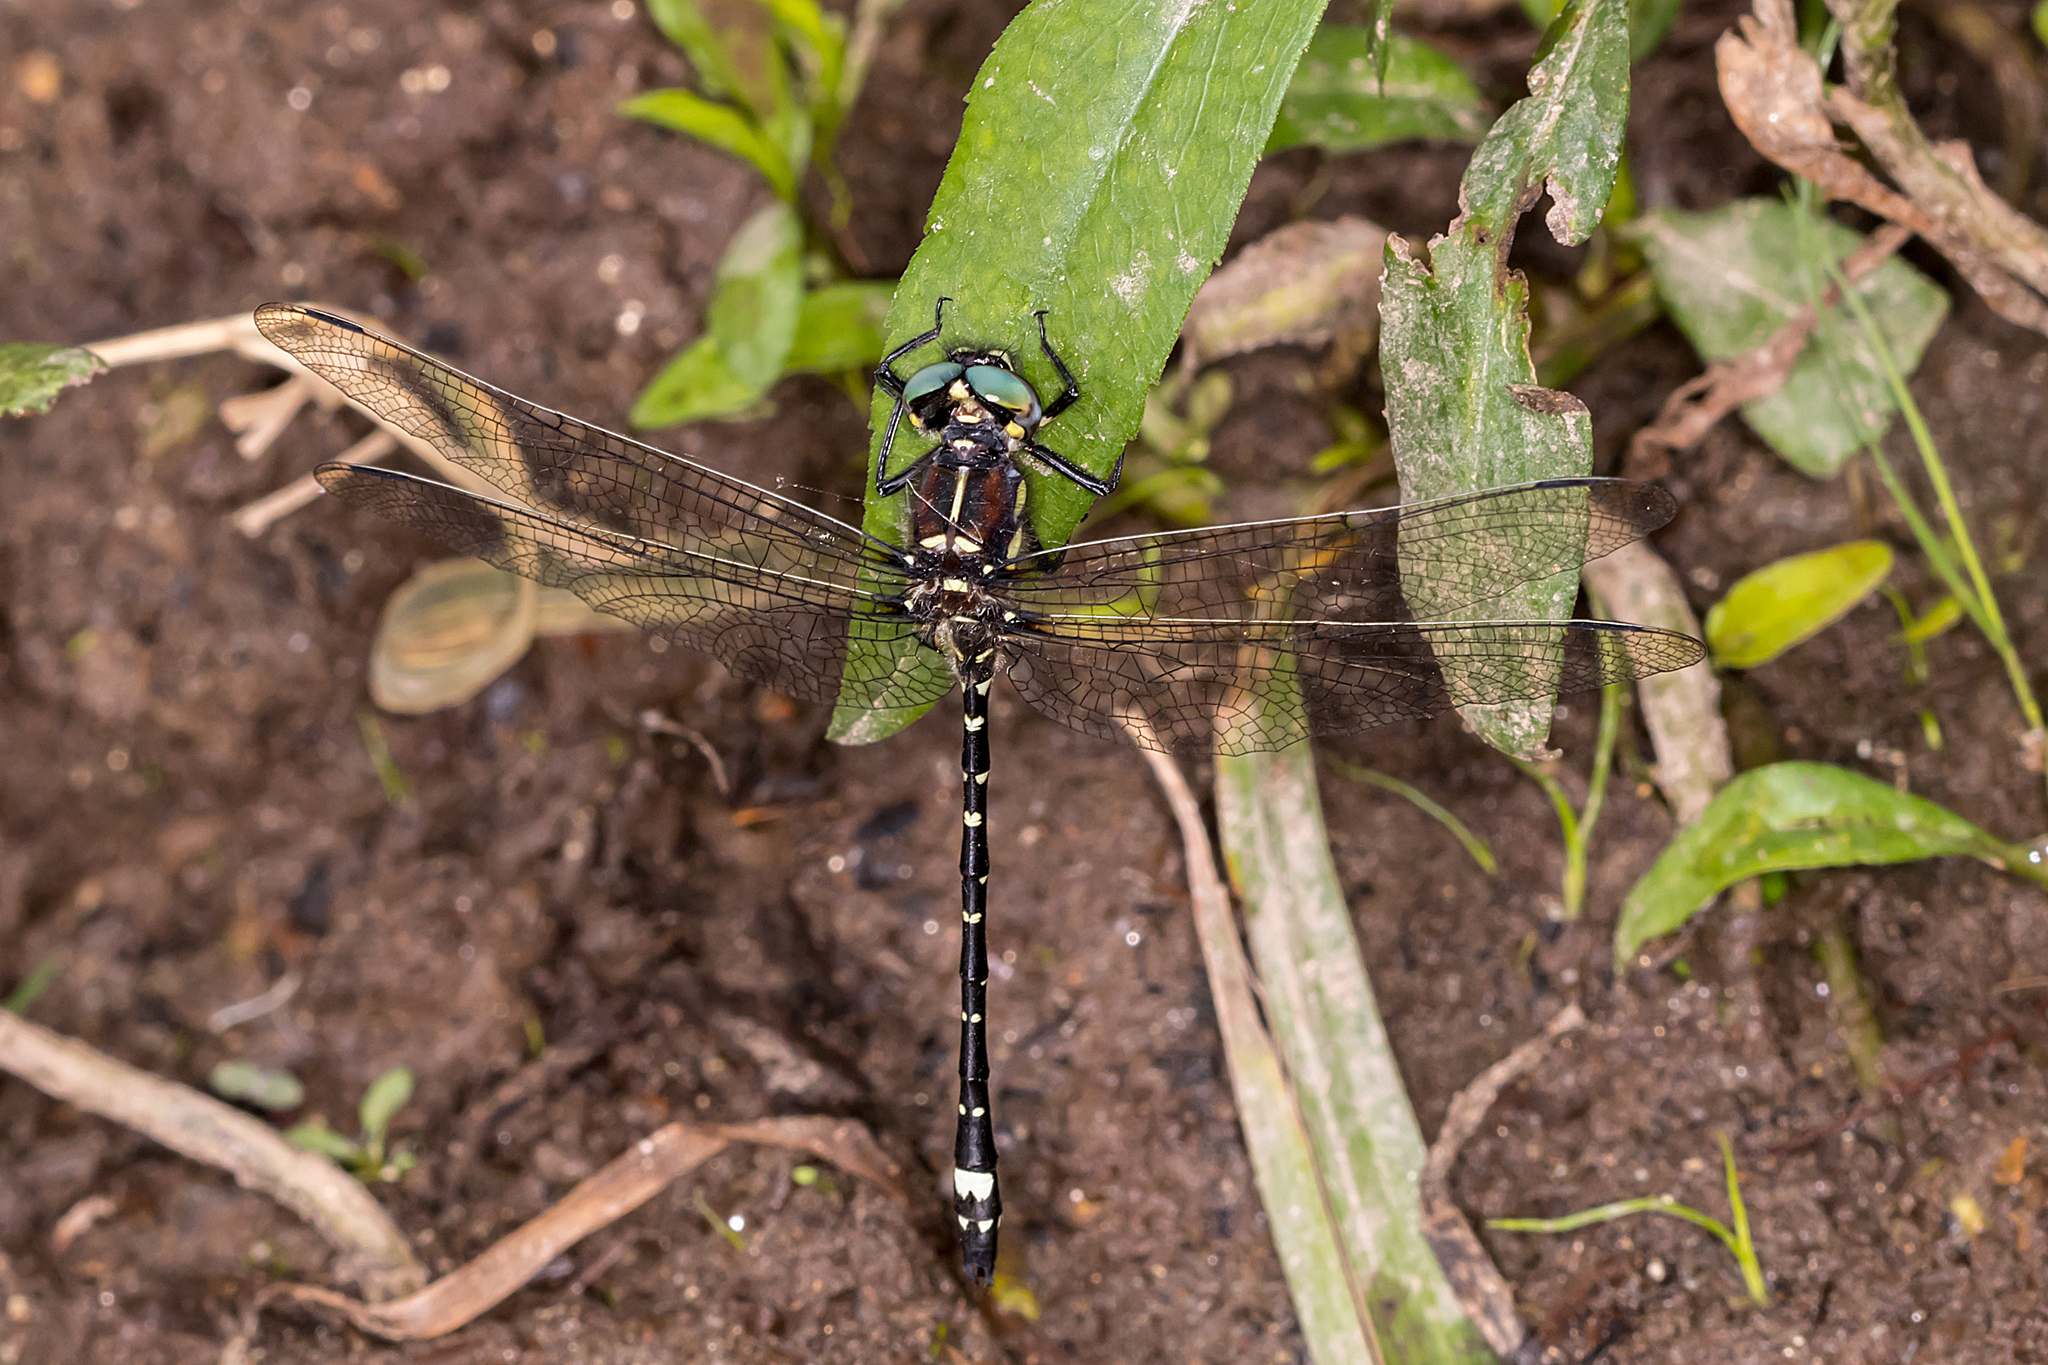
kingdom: Animalia
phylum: Arthropoda
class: Insecta
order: Odonata
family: Synthemistidae
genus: Eusynthemis
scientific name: Eusynthemis brevistyla
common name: Small tigertail
